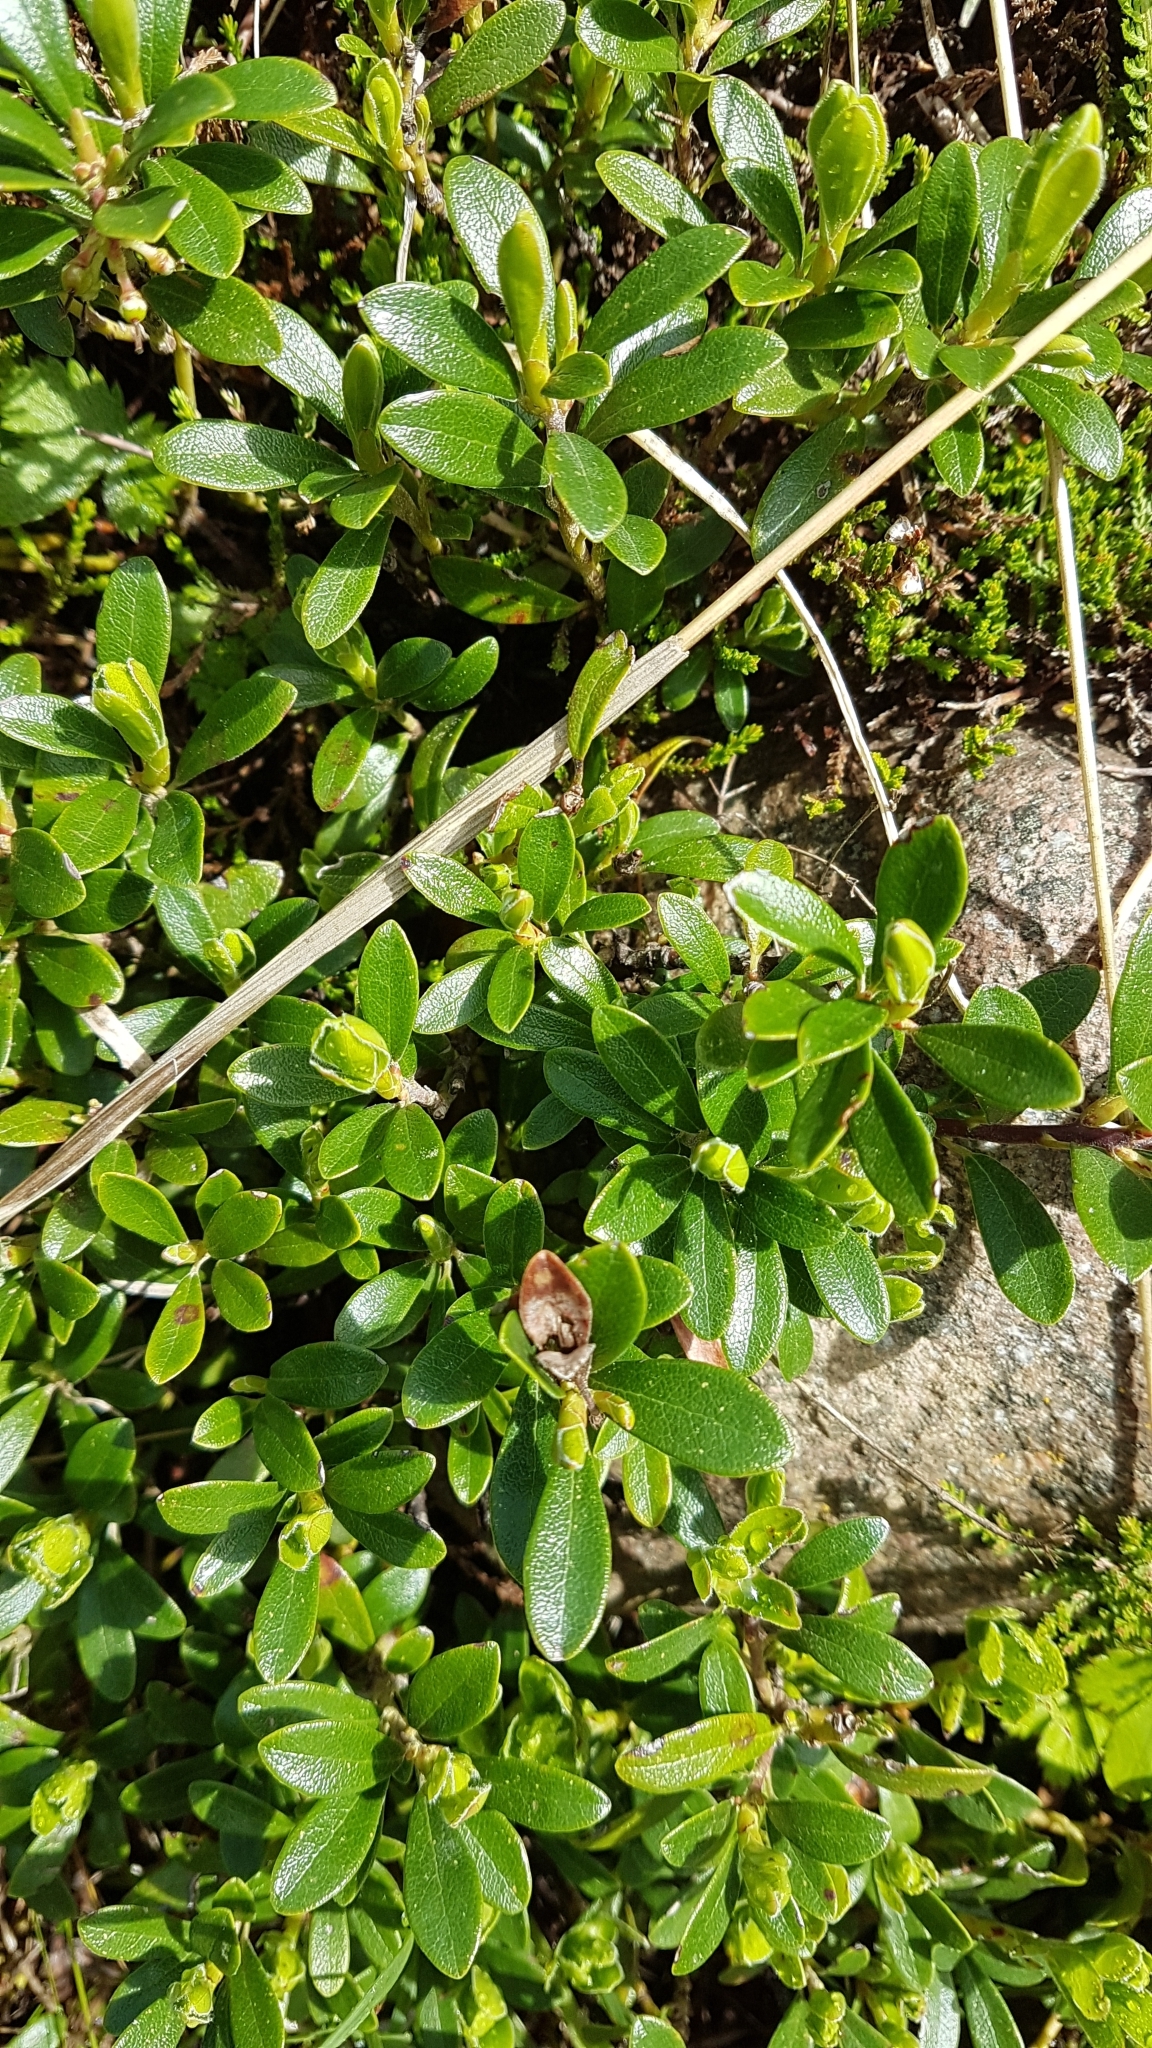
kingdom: Plantae
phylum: Tracheophyta
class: Magnoliopsida
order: Ericales
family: Ericaceae
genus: Arctostaphylos
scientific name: Arctostaphylos uva-ursi
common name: Bearberry
